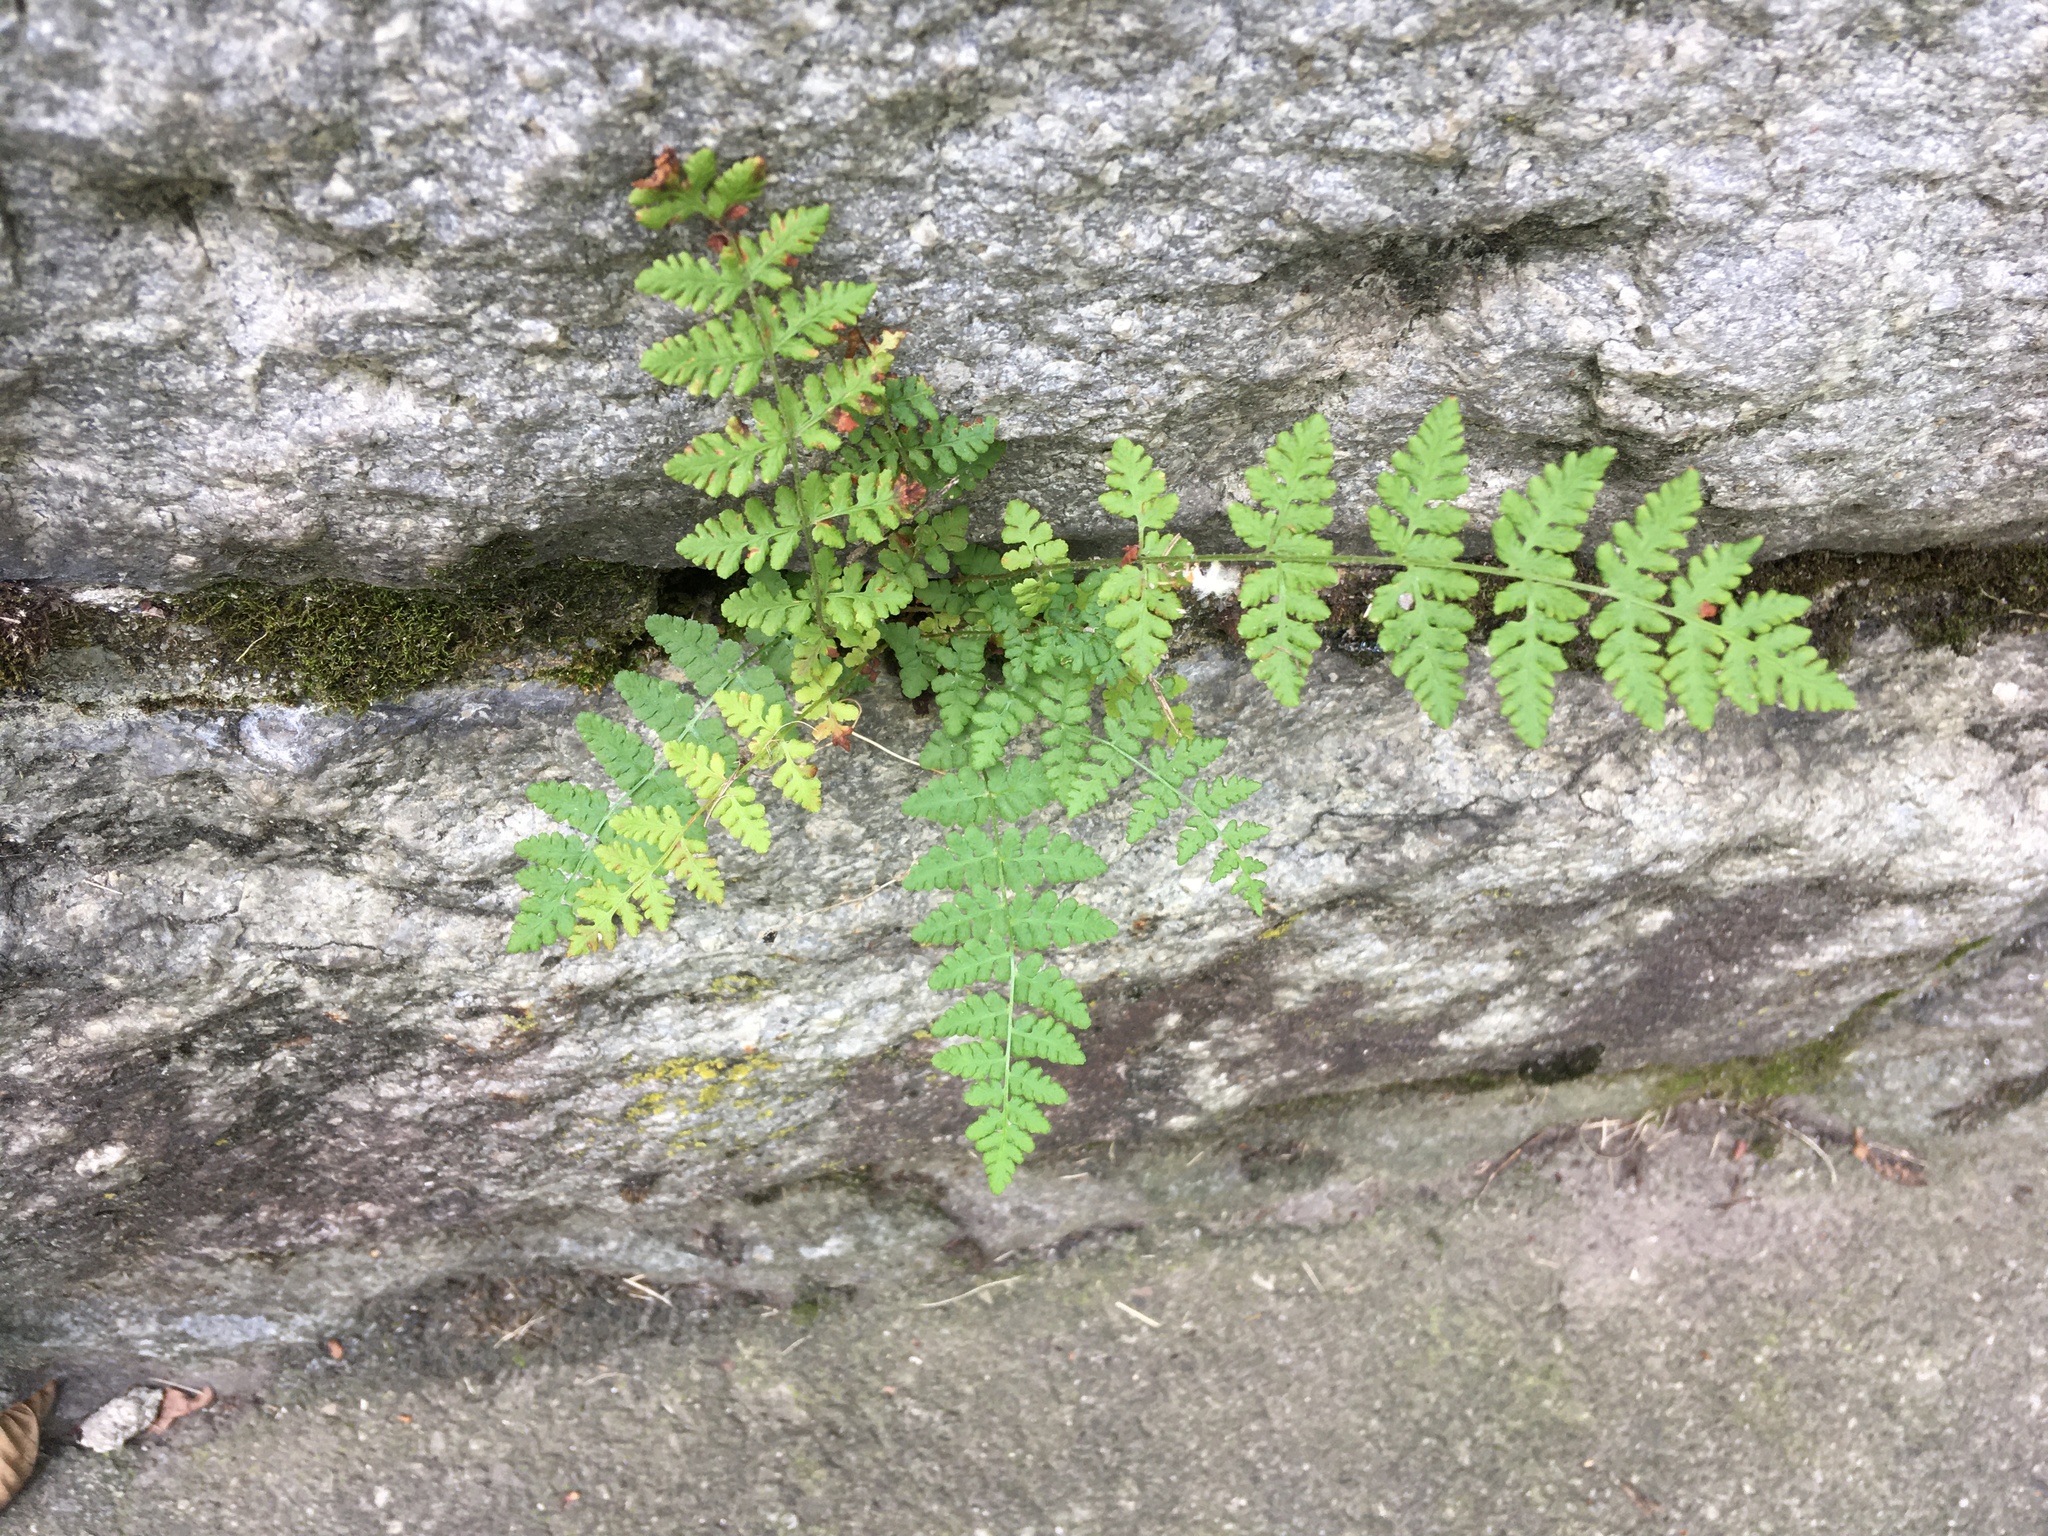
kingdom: Plantae
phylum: Tracheophyta
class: Polypodiopsida
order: Polypodiales
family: Woodsiaceae
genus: Physematium
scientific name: Physematium obtusum
